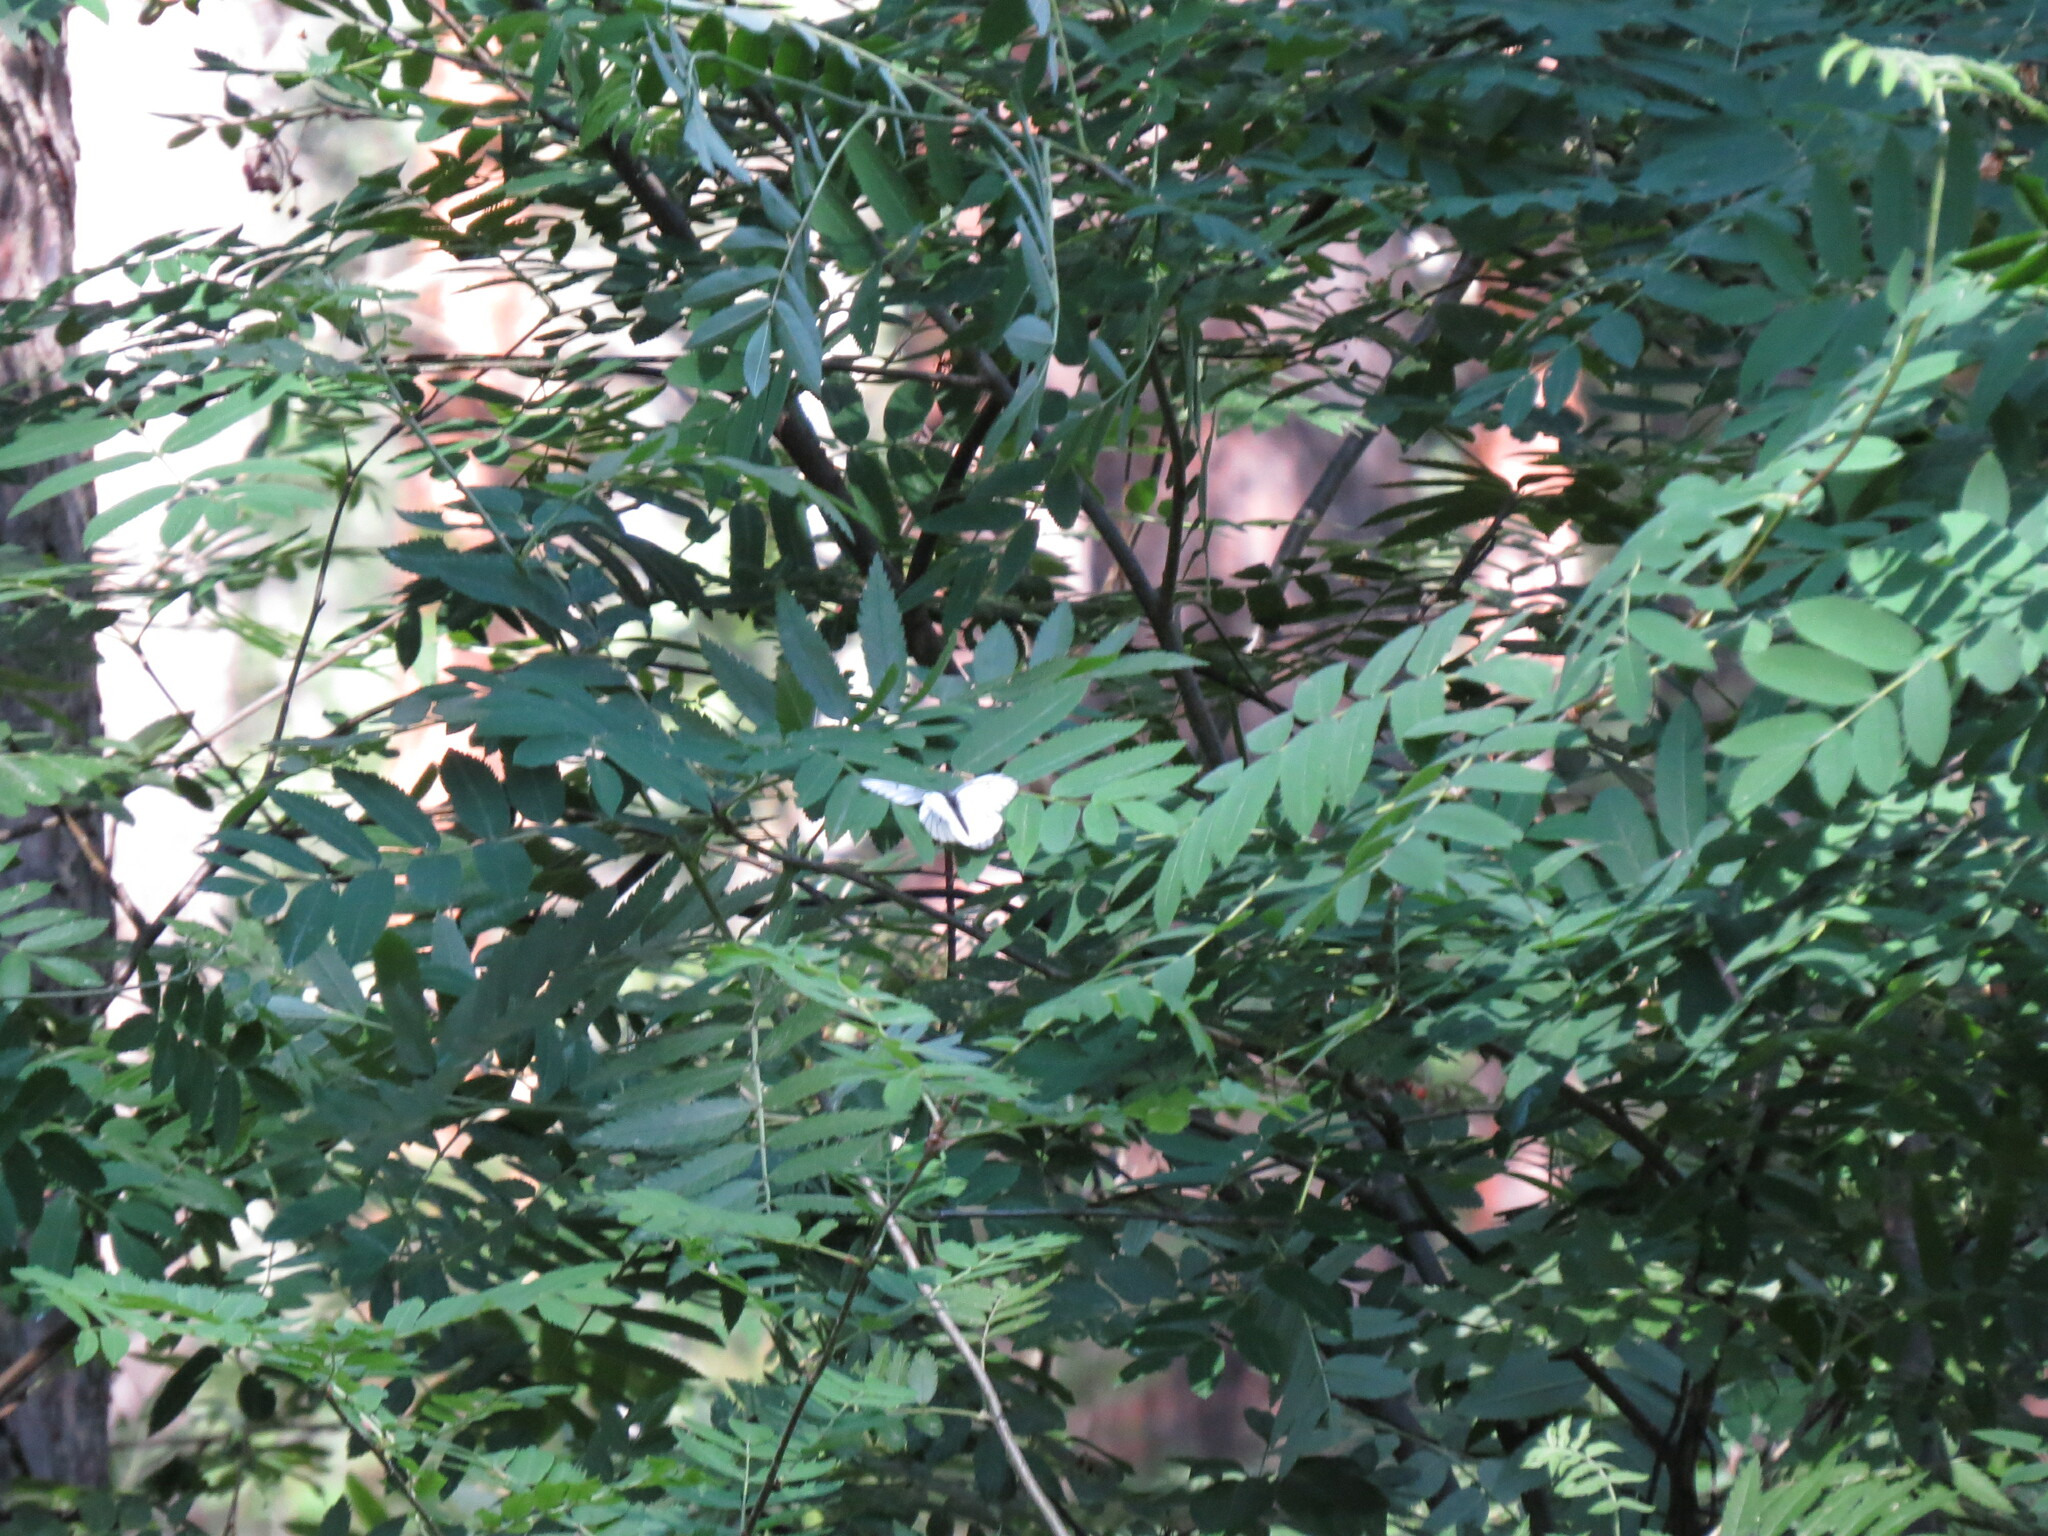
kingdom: Animalia
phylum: Arthropoda
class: Insecta
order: Lepidoptera
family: Pieridae
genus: Aporia
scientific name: Aporia crataegi
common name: Black-veined white
